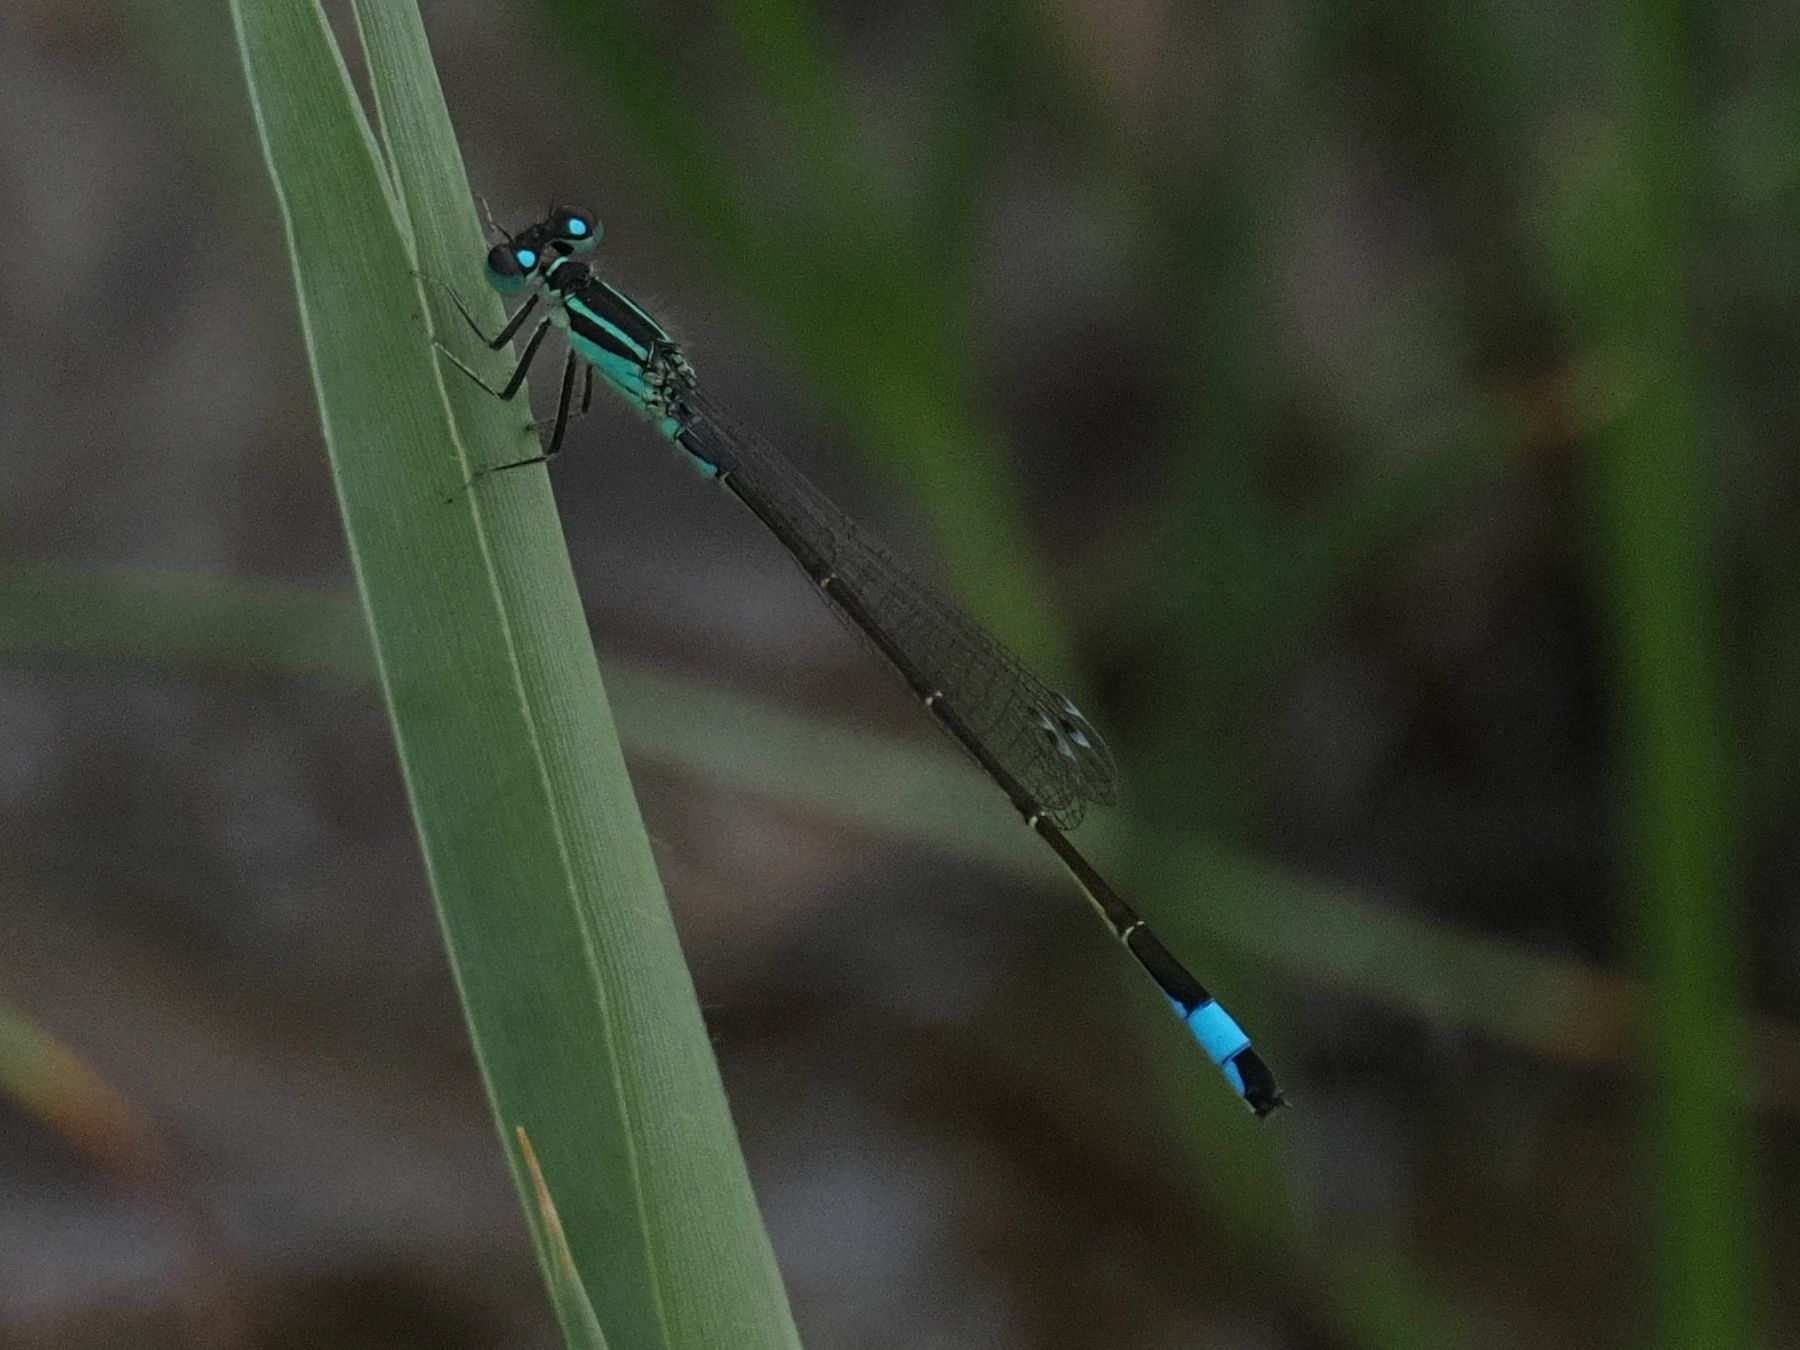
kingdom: Animalia
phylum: Arthropoda
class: Insecta
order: Odonata
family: Coenagrionidae
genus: Ischnura
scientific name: Ischnura elegans
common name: Blue-tailed damselfly
